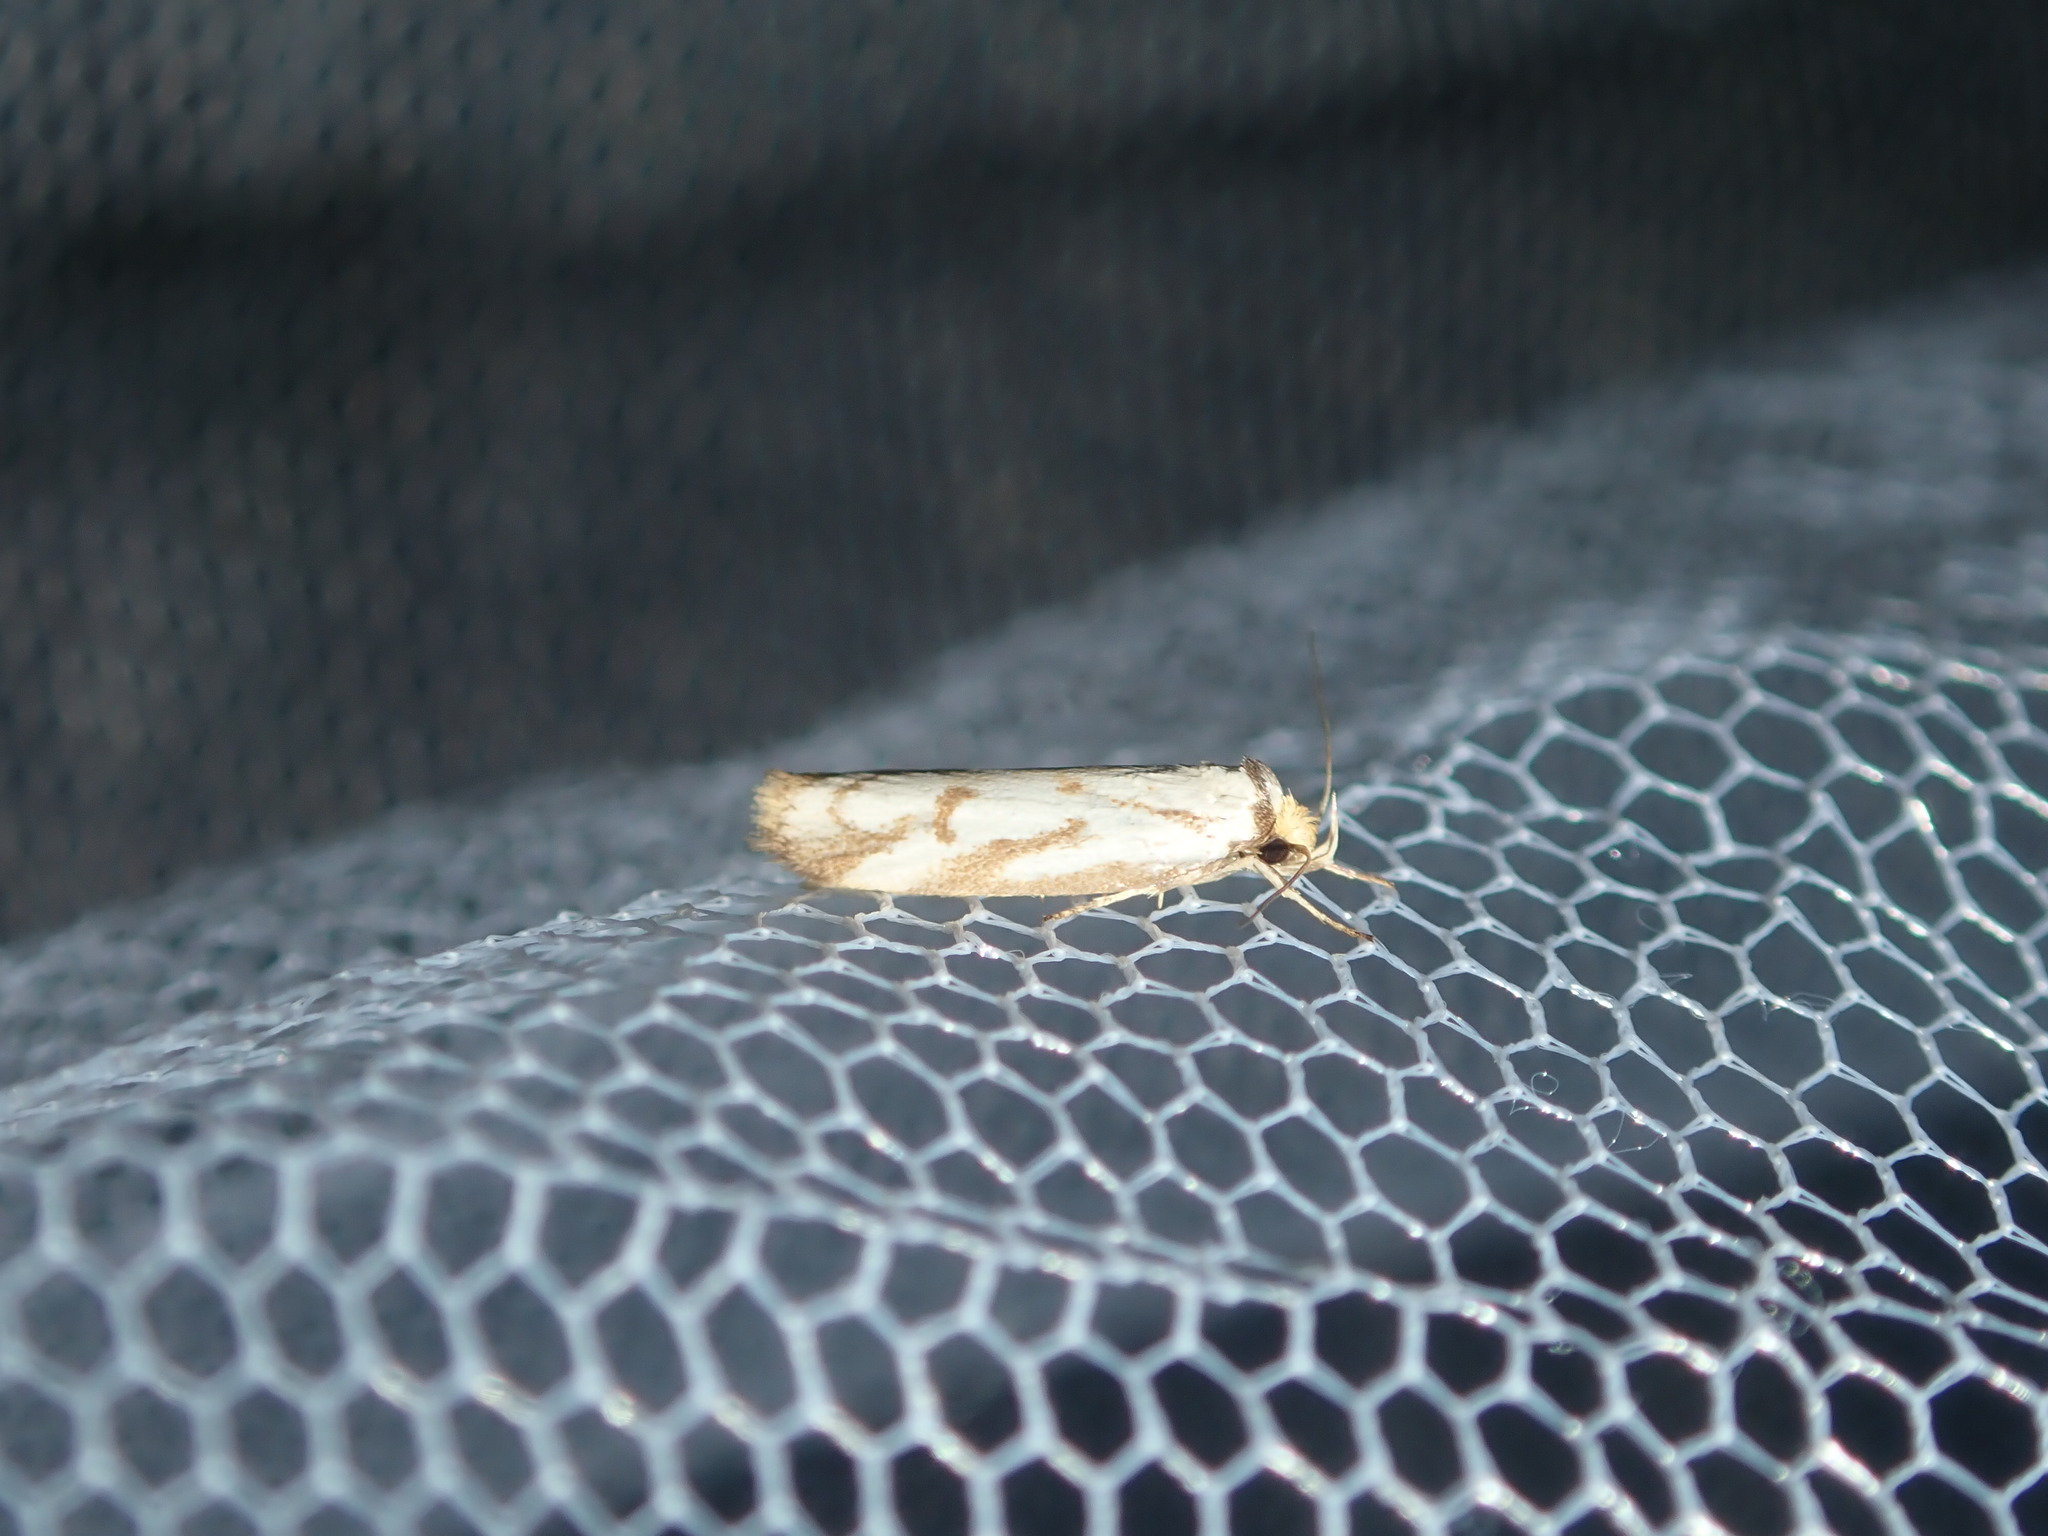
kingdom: Animalia
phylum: Arthropoda
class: Insecta
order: Lepidoptera
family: Oecophoridae
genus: Philobota
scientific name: Philobota cretacea
